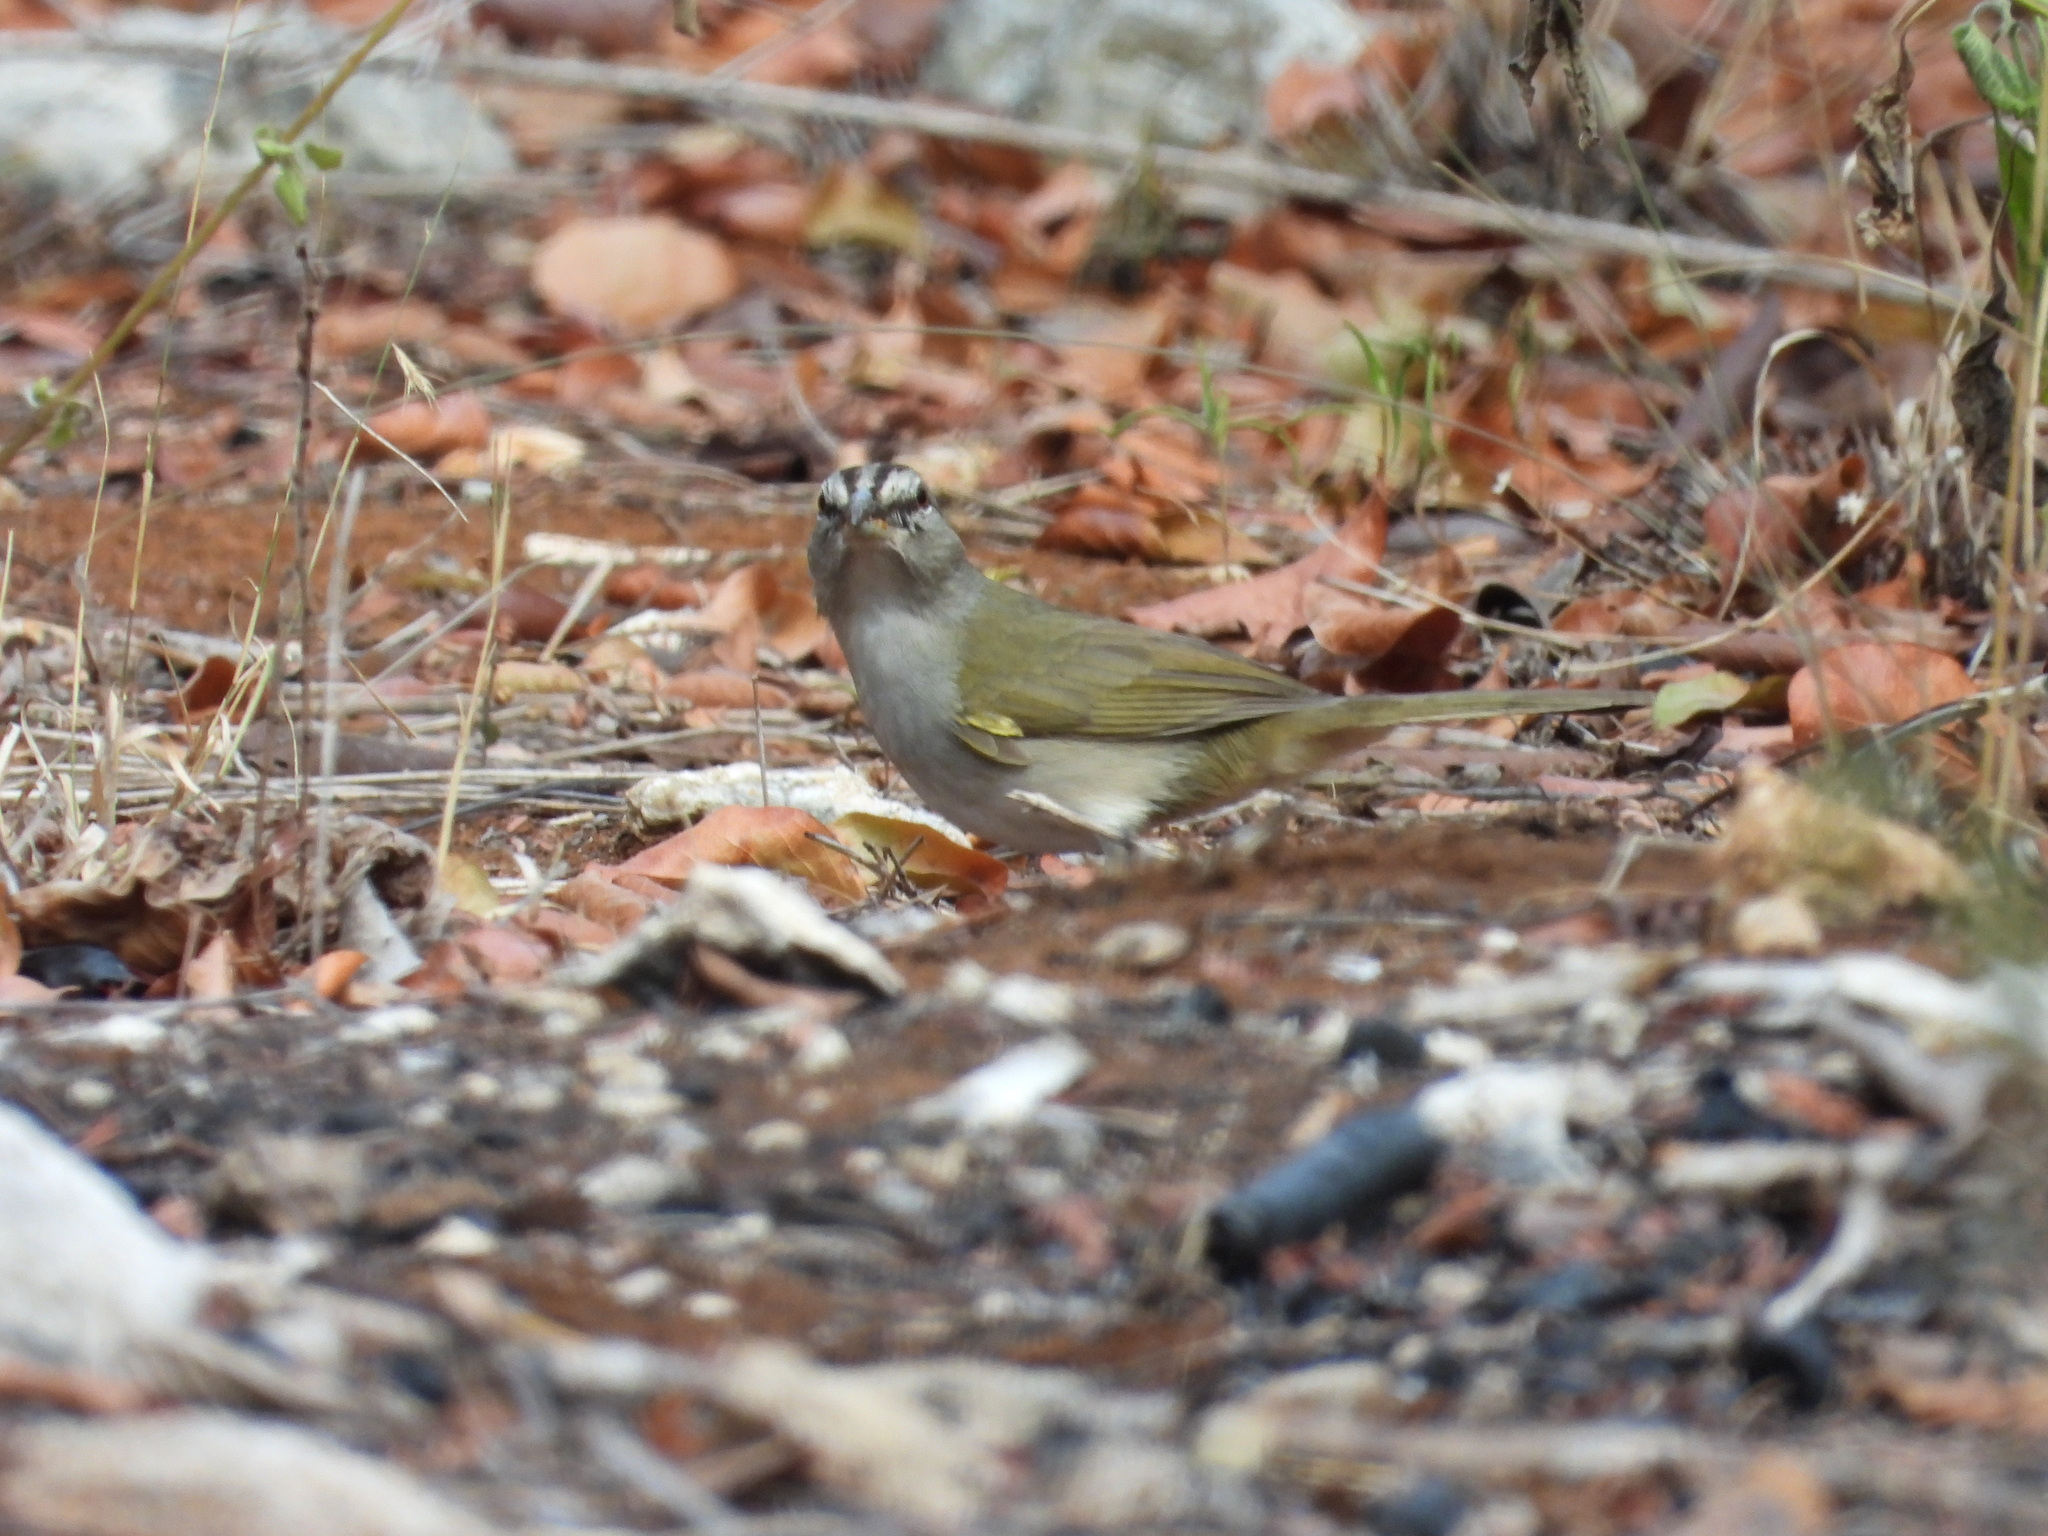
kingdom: Animalia
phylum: Chordata
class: Aves
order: Passeriformes
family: Passerellidae
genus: Arremonops
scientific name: Arremonops rufivirgatus
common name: Olive sparrow
